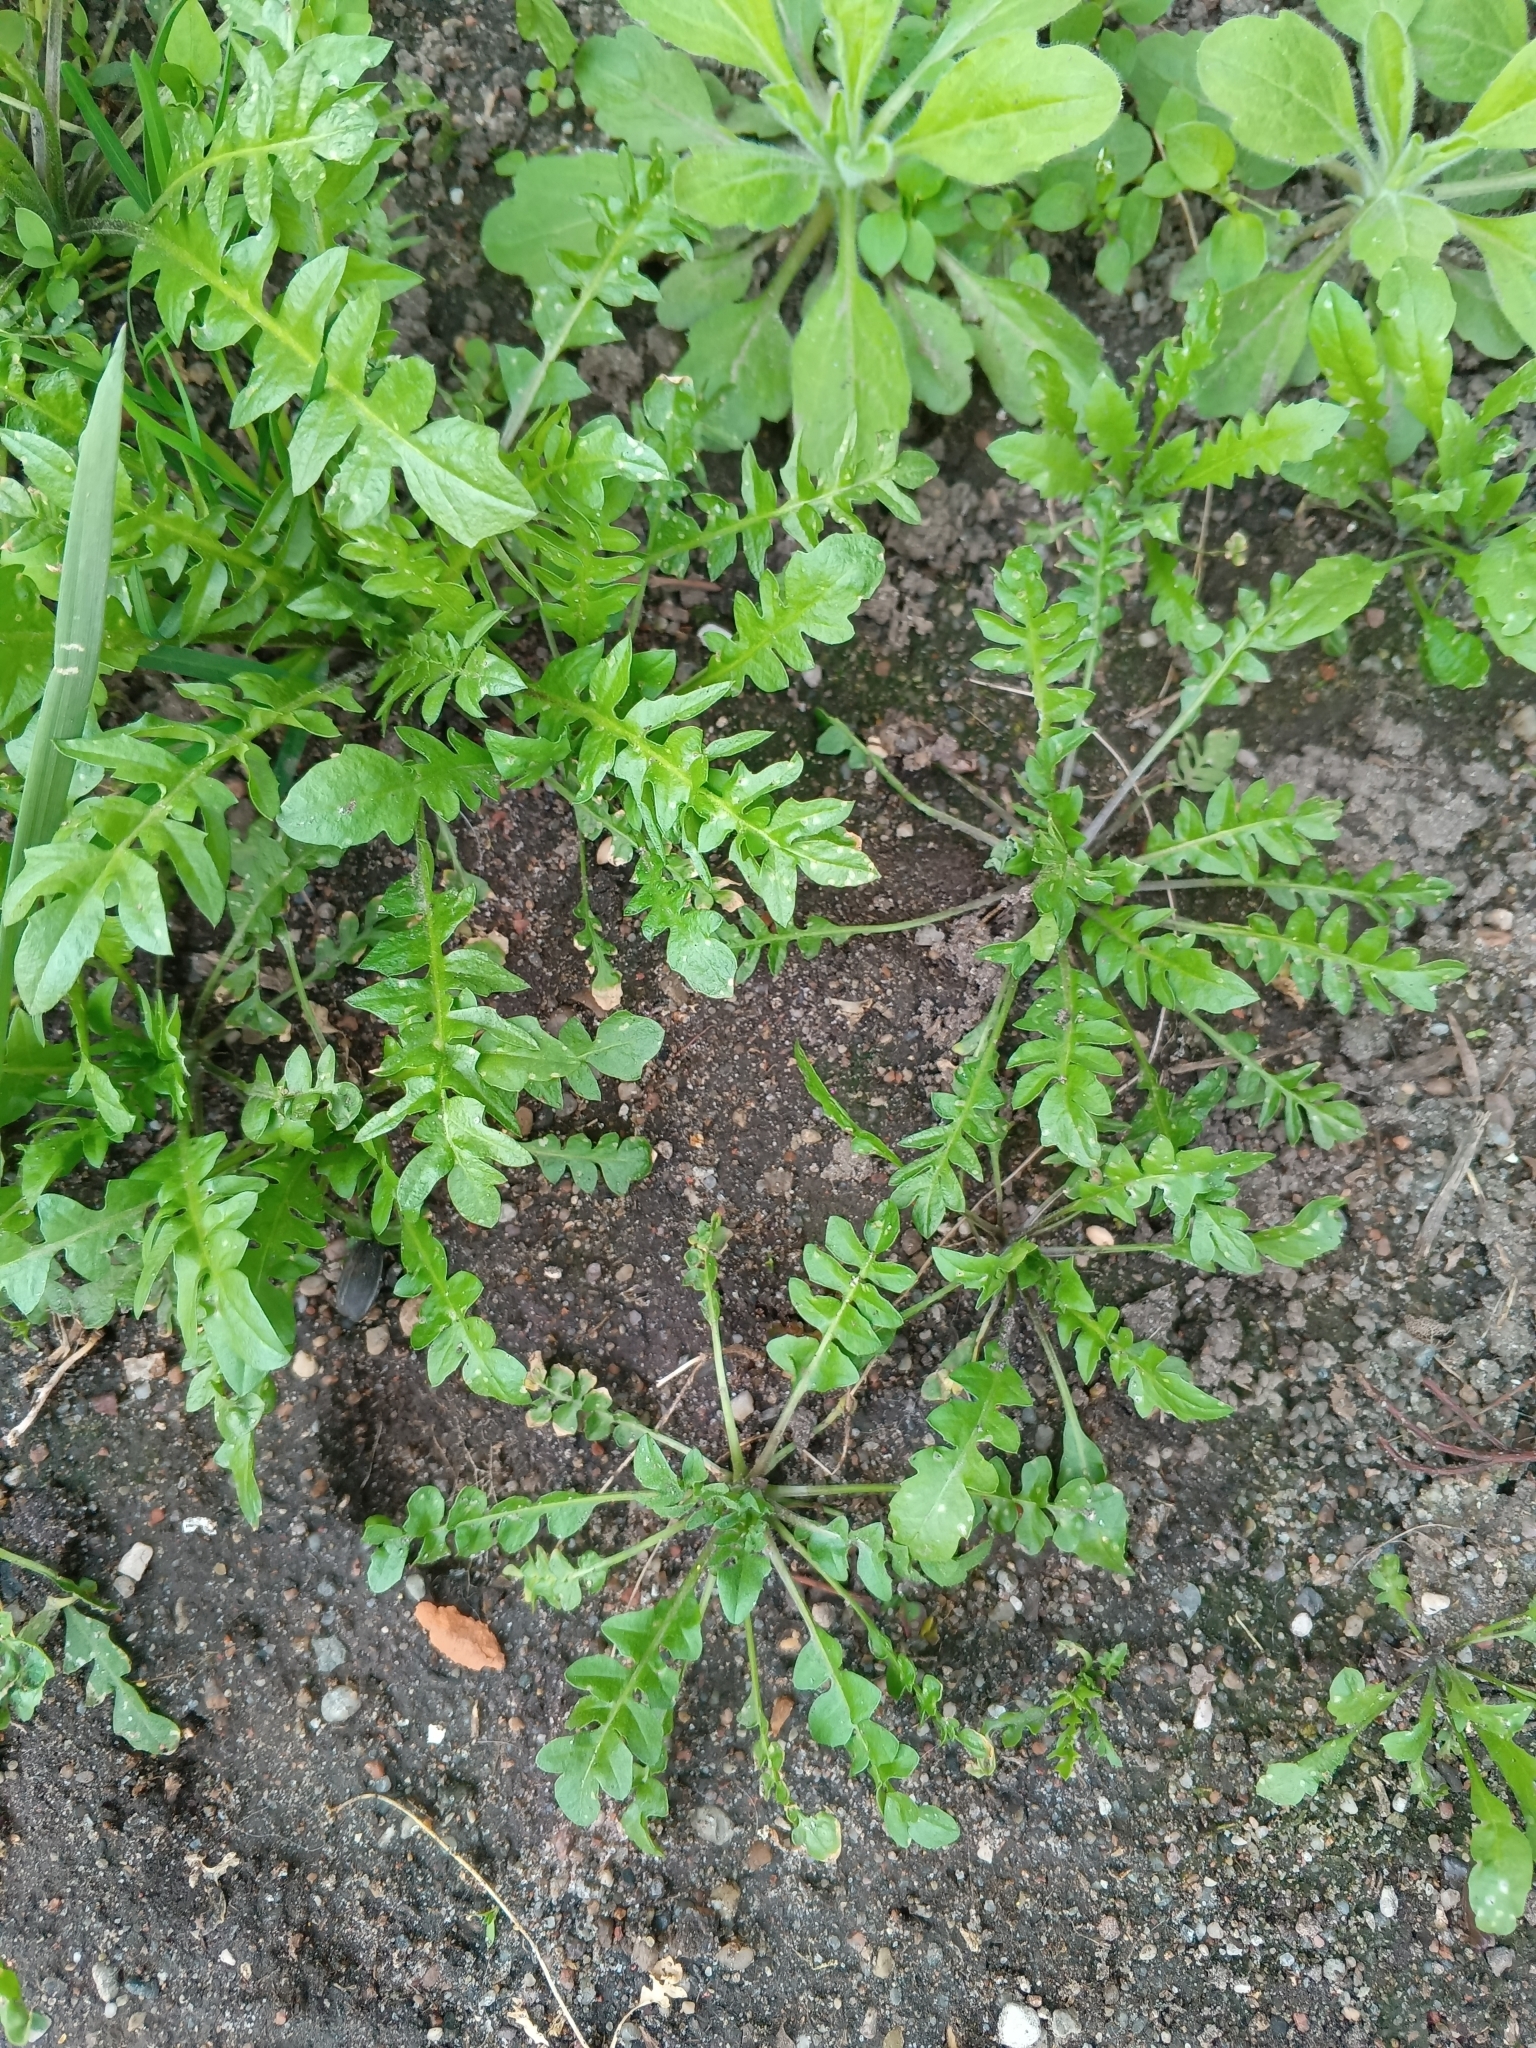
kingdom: Plantae
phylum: Tracheophyta
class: Magnoliopsida
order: Brassicales
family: Brassicaceae
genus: Capsella
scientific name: Capsella bursa-pastoris
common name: Shepherd's purse
